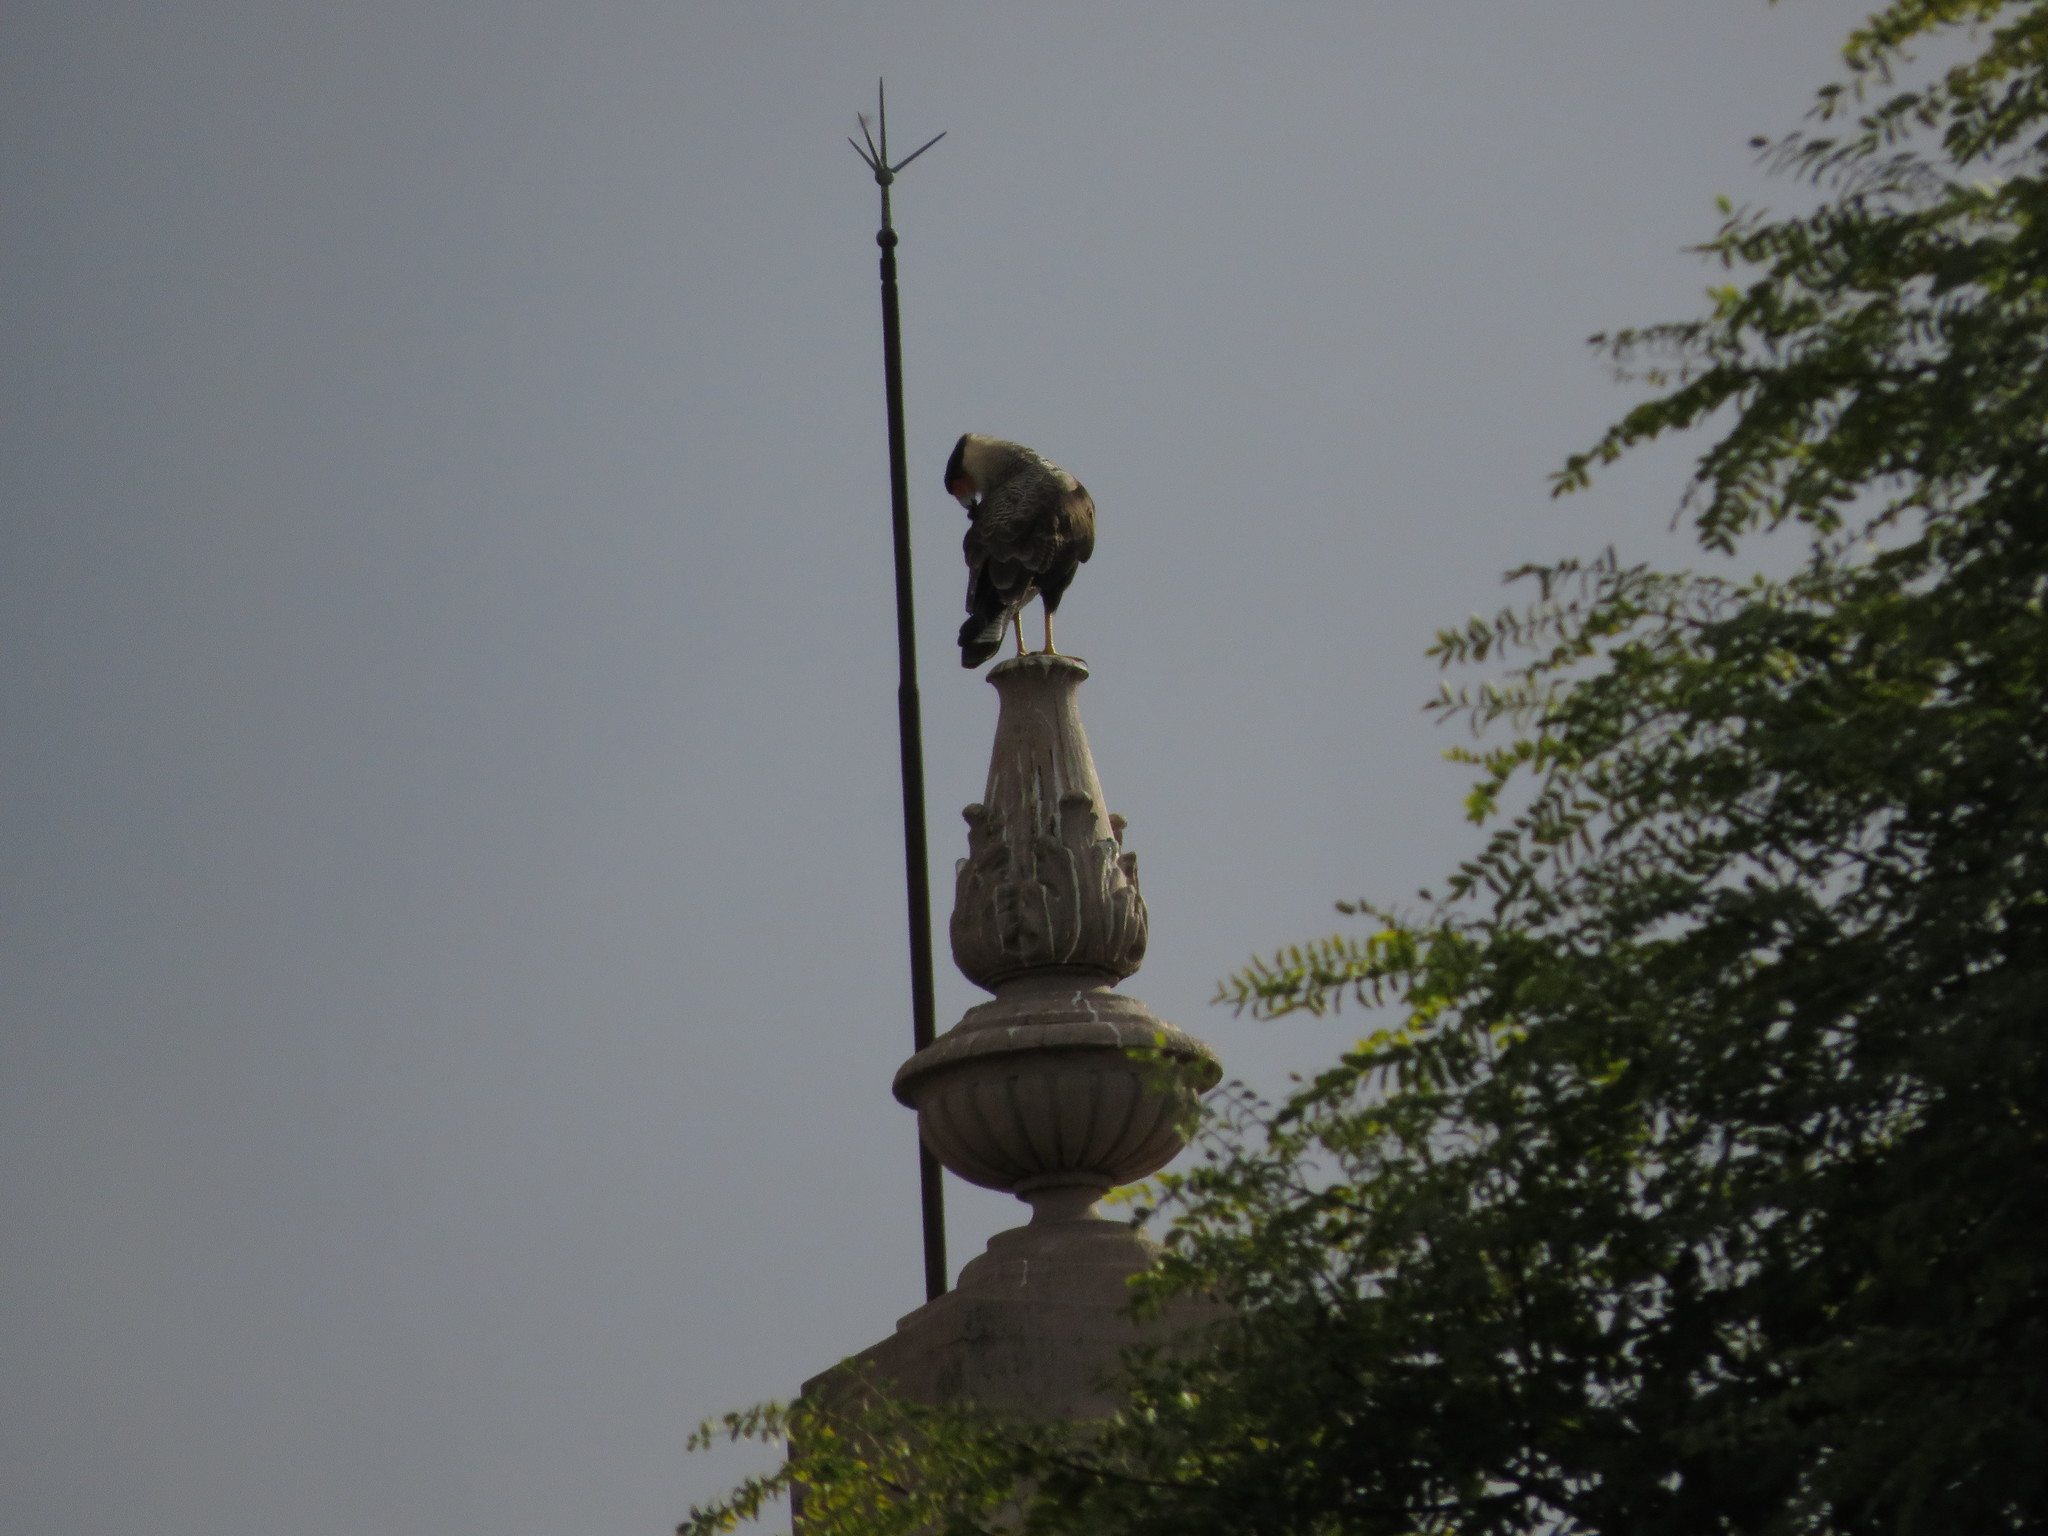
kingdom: Animalia
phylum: Chordata
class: Aves
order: Falconiformes
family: Falconidae
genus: Caracara
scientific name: Caracara plancus
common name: Southern caracara
